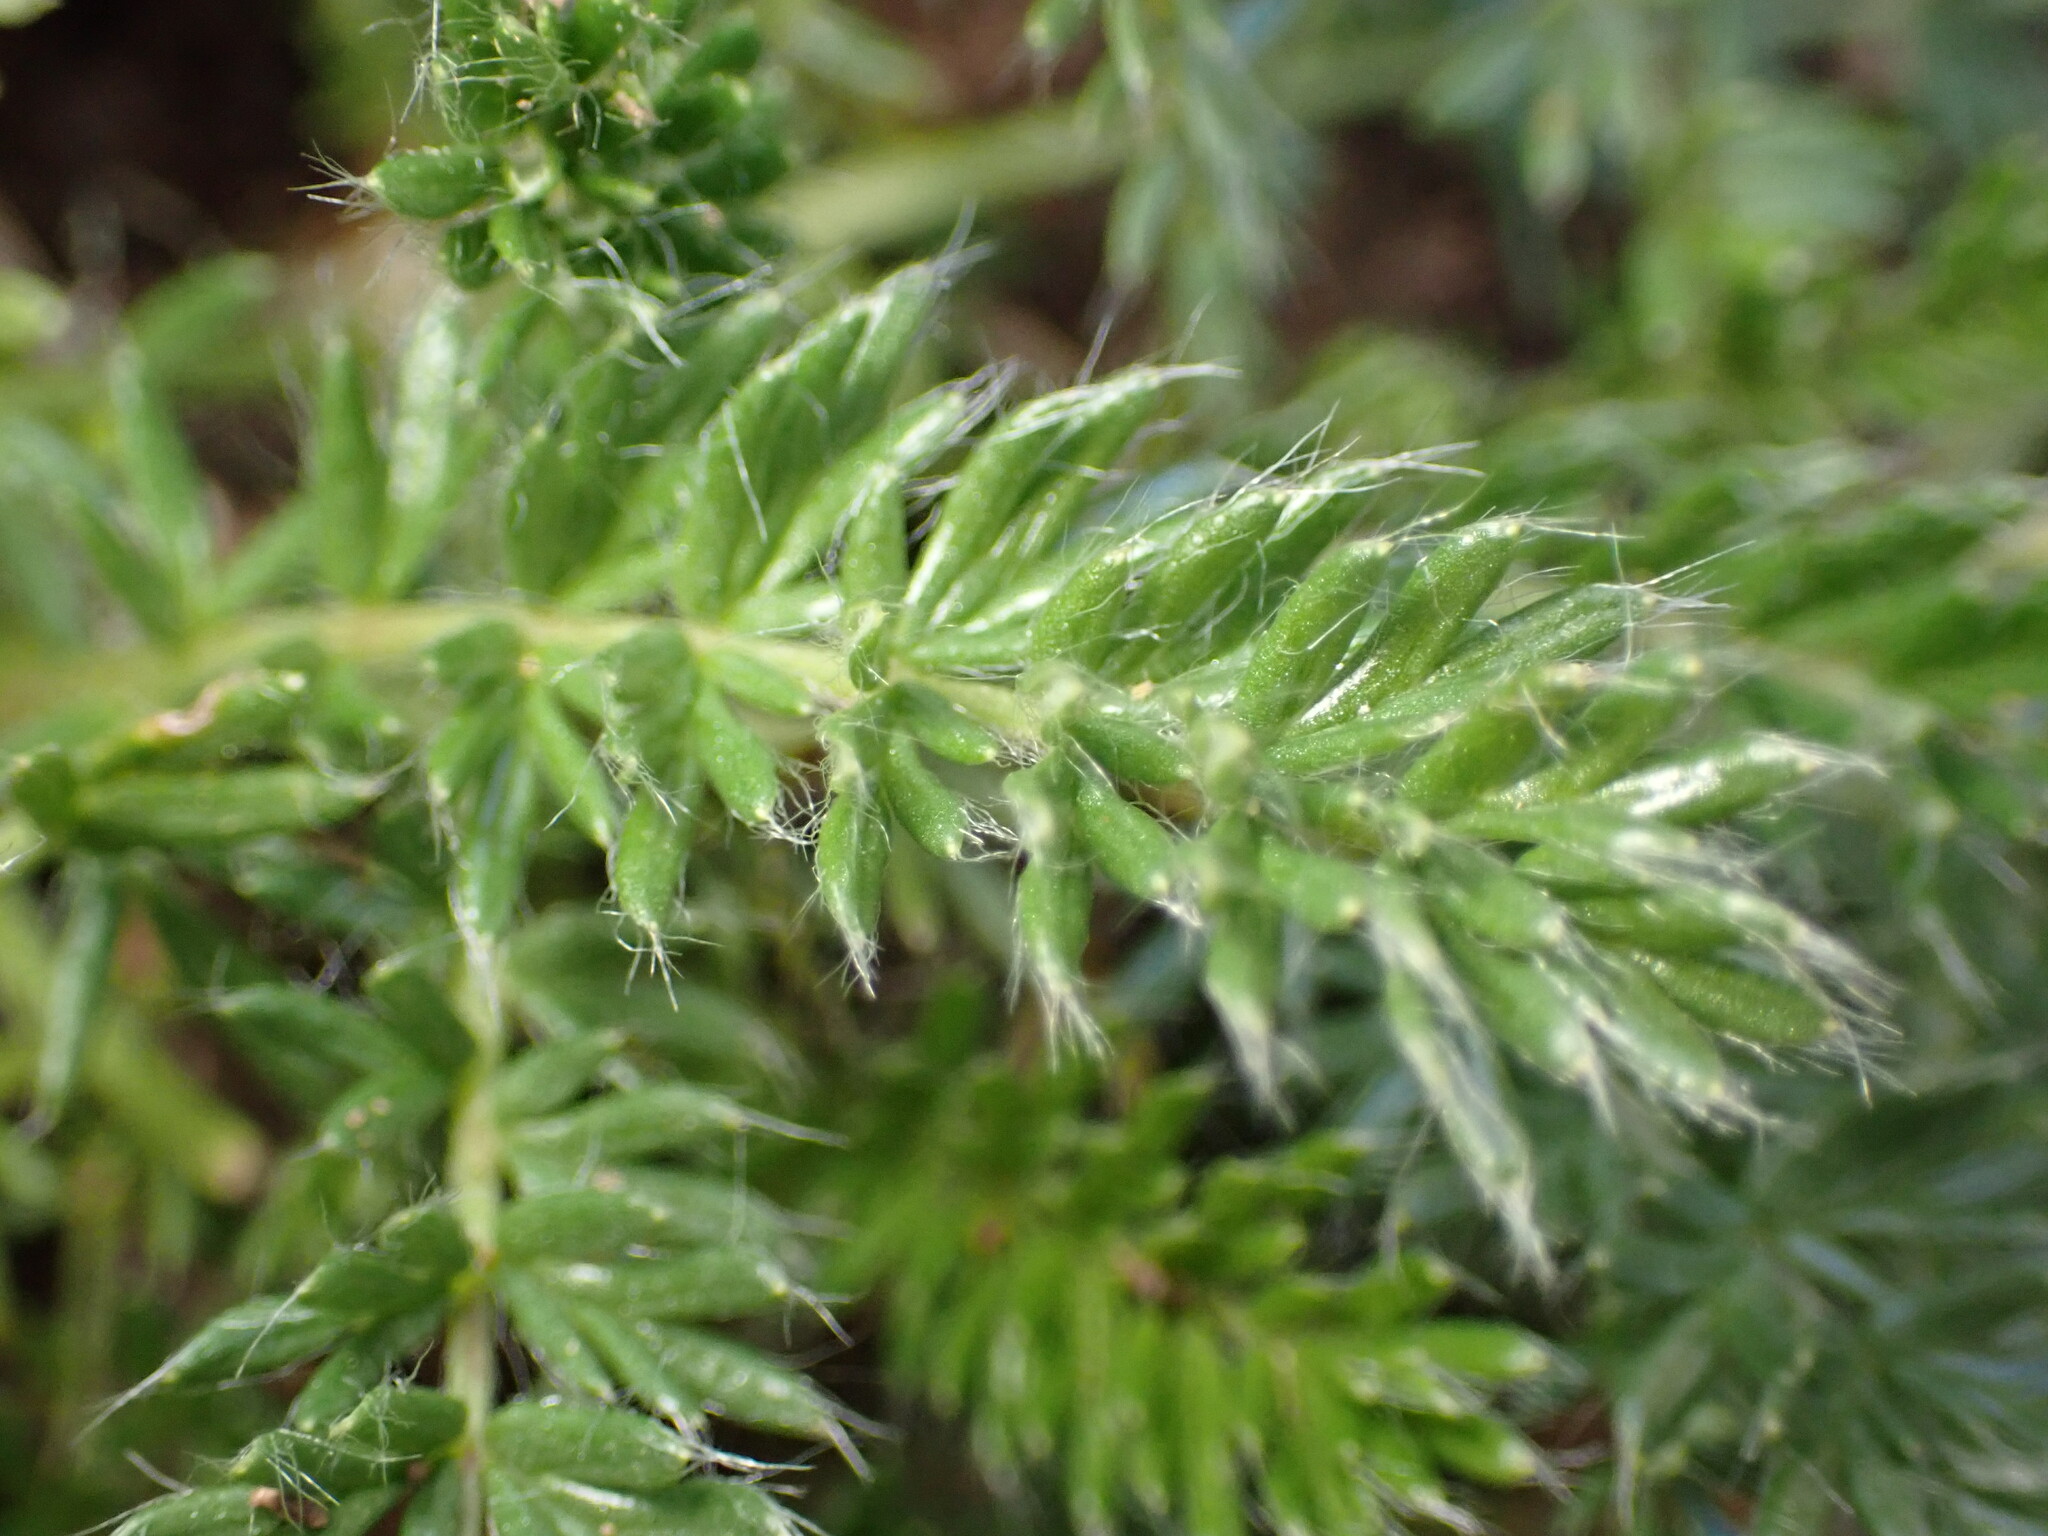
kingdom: Plantae
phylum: Tracheophyta
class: Magnoliopsida
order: Rosales
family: Rosaceae
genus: Acaena
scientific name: Acaena pinnatifida
